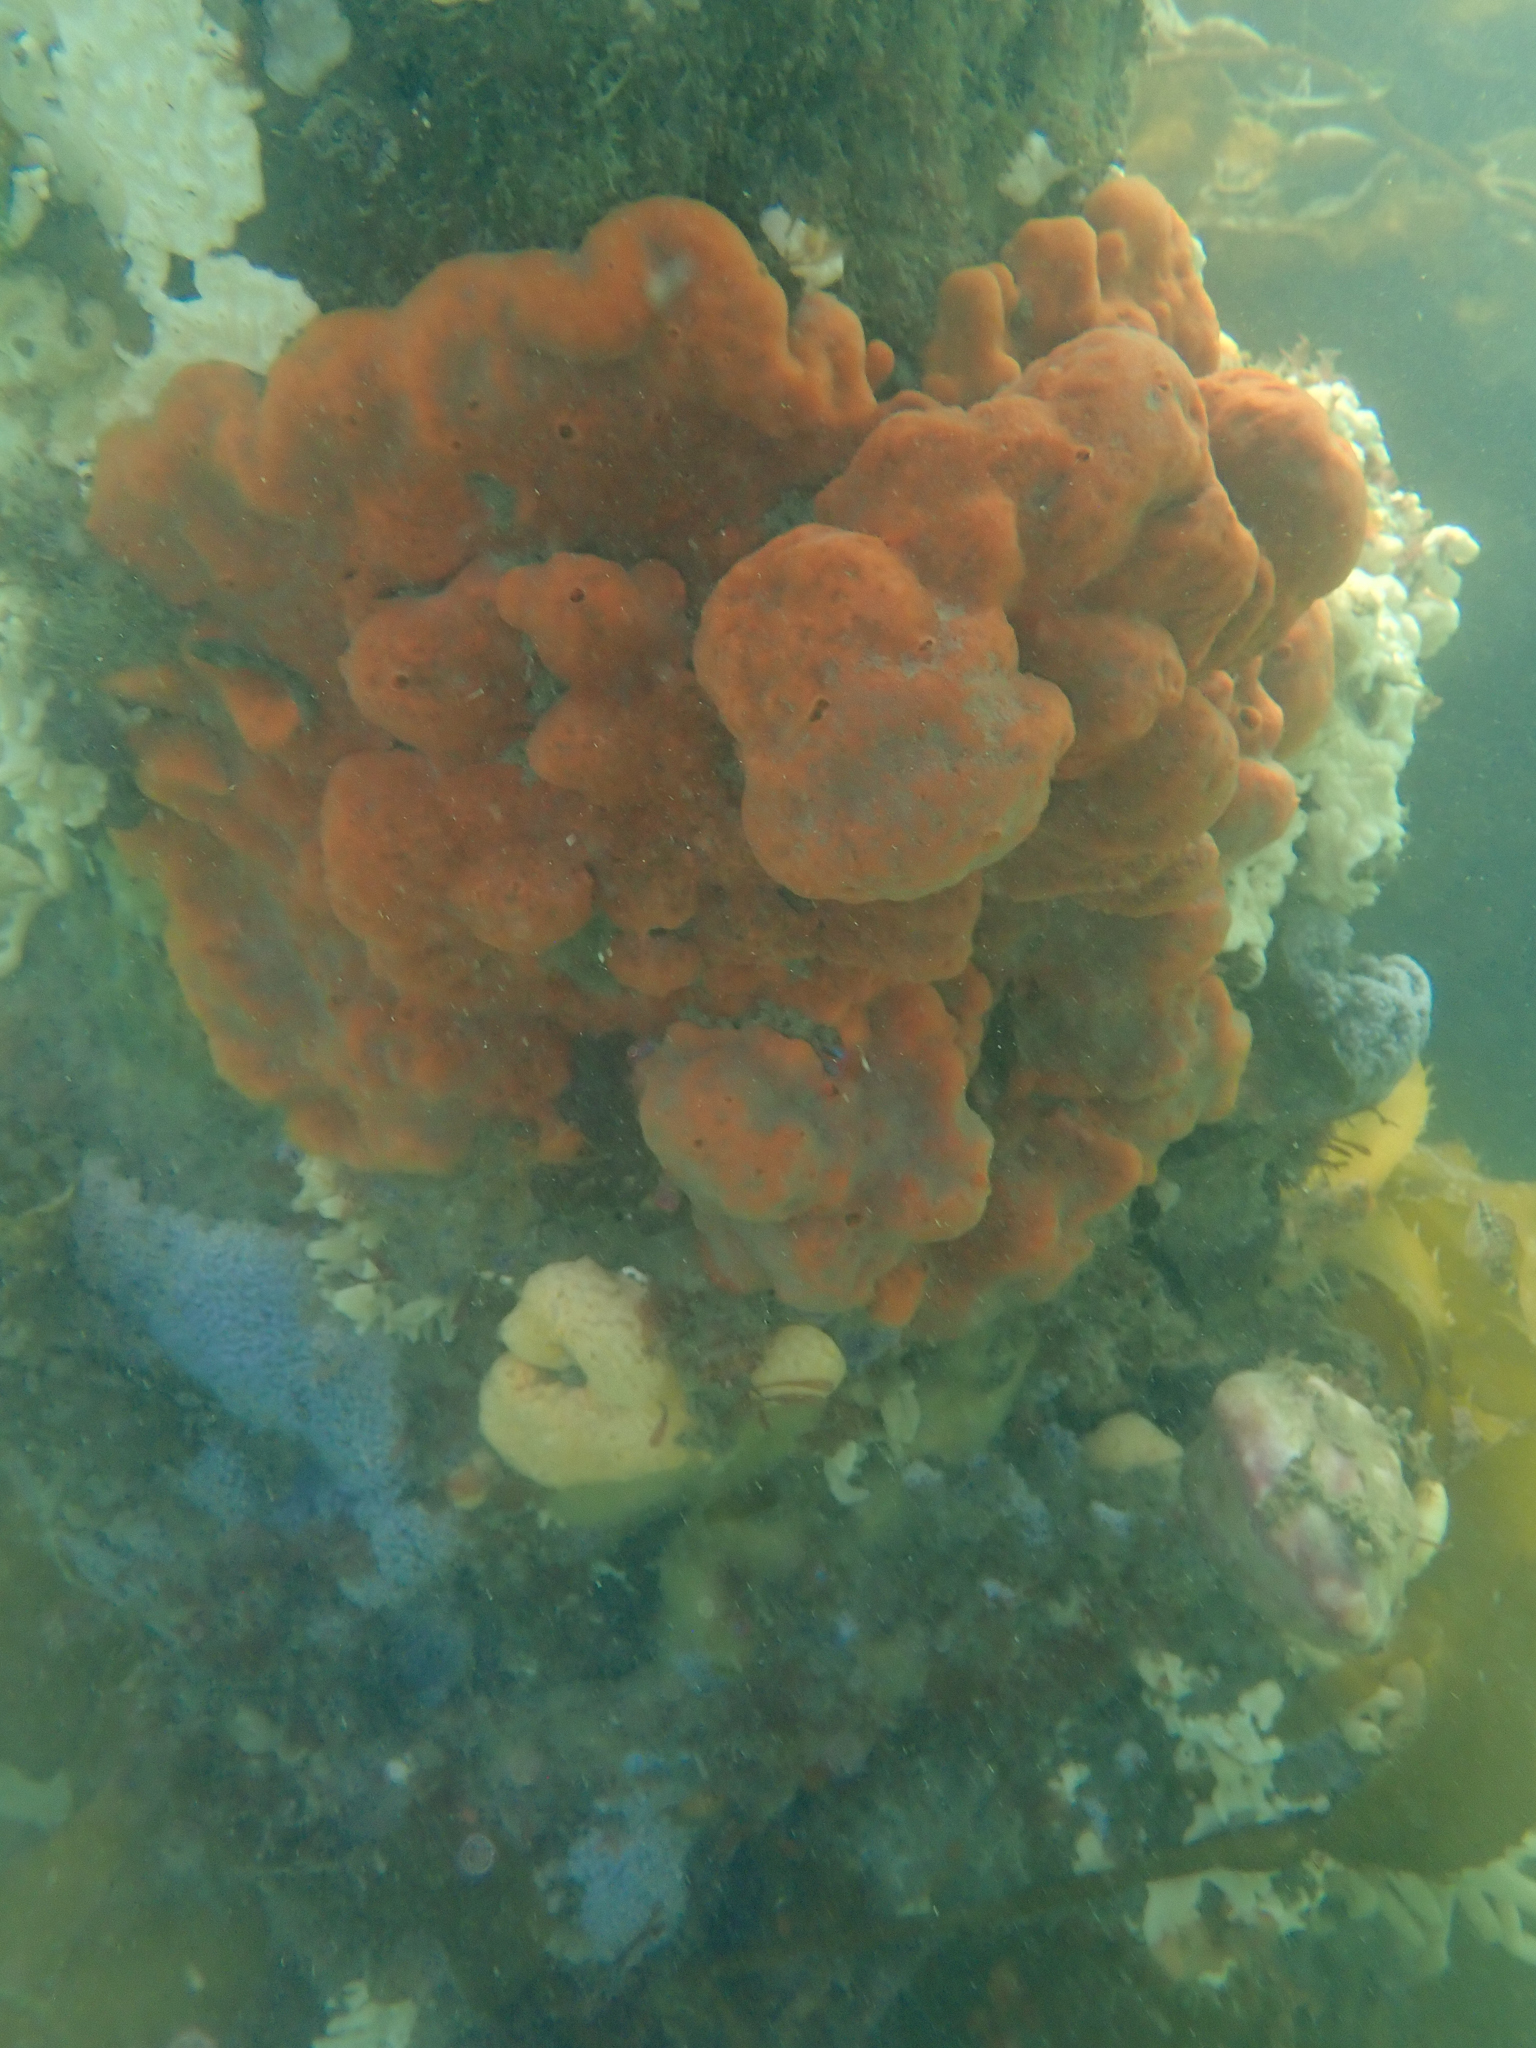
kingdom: Animalia
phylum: Porifera
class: Demospongiae
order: Poecilosclerida
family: Microcionidae
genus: Clathria
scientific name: Clathria macrotoxa
